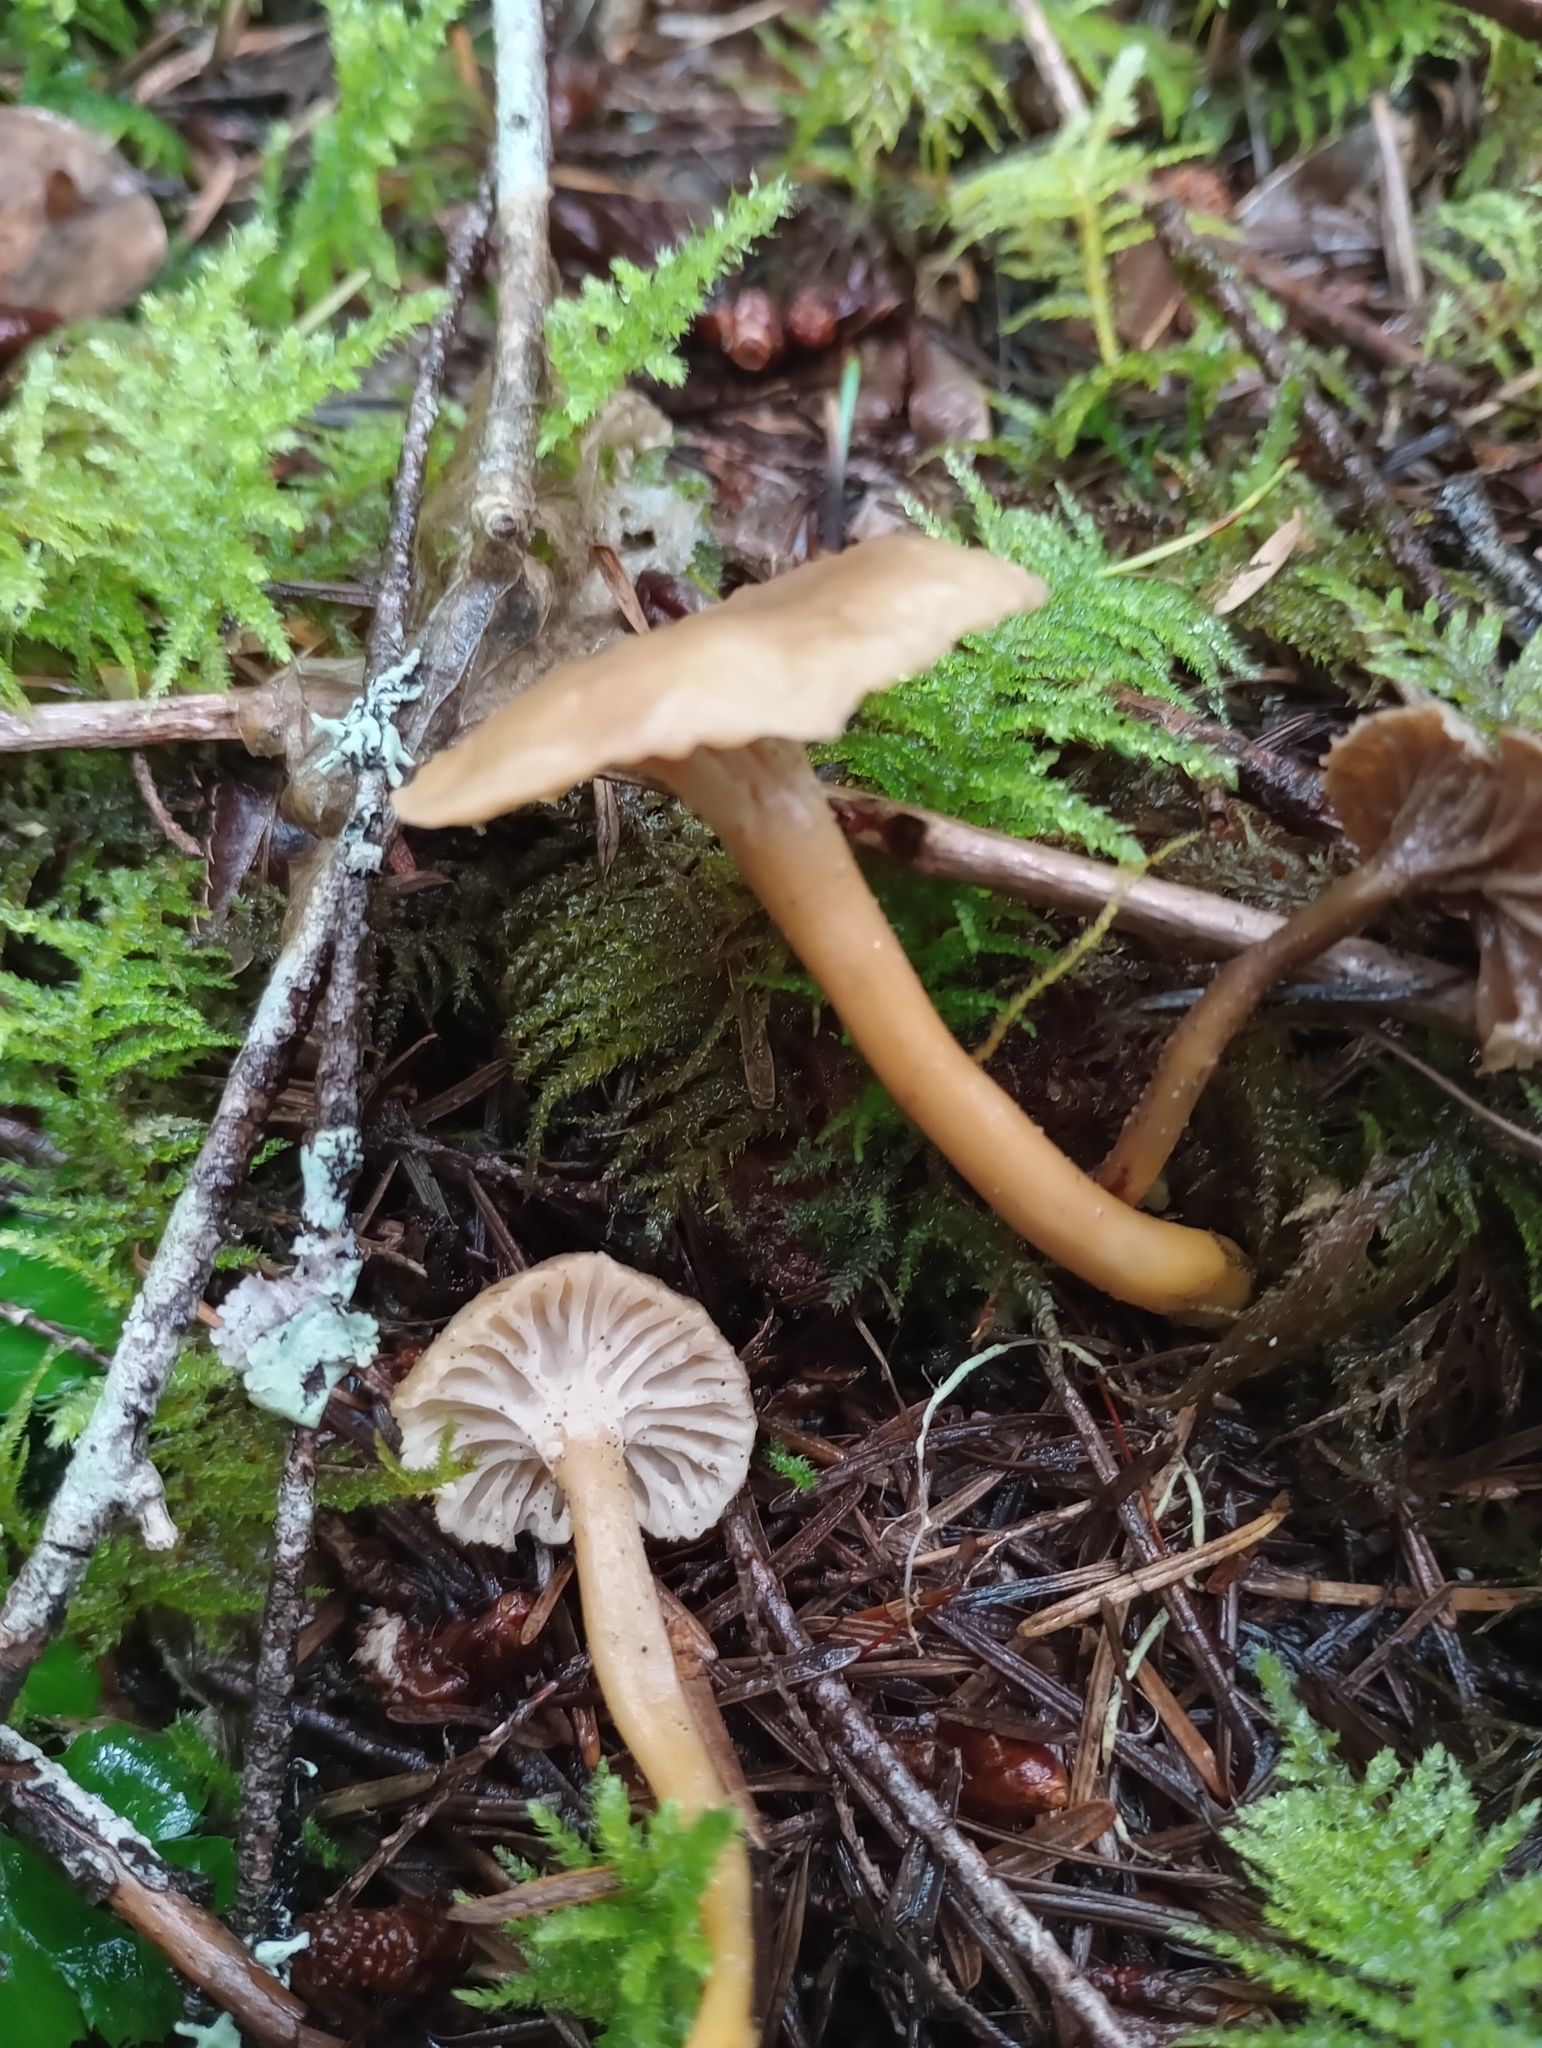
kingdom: Fungi
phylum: Basidiomycota
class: Agaricomycetes
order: Cantharellales
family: Hydnaceae
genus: Craterellus
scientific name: Craterellus tubaeformis
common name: Yellowfoot
